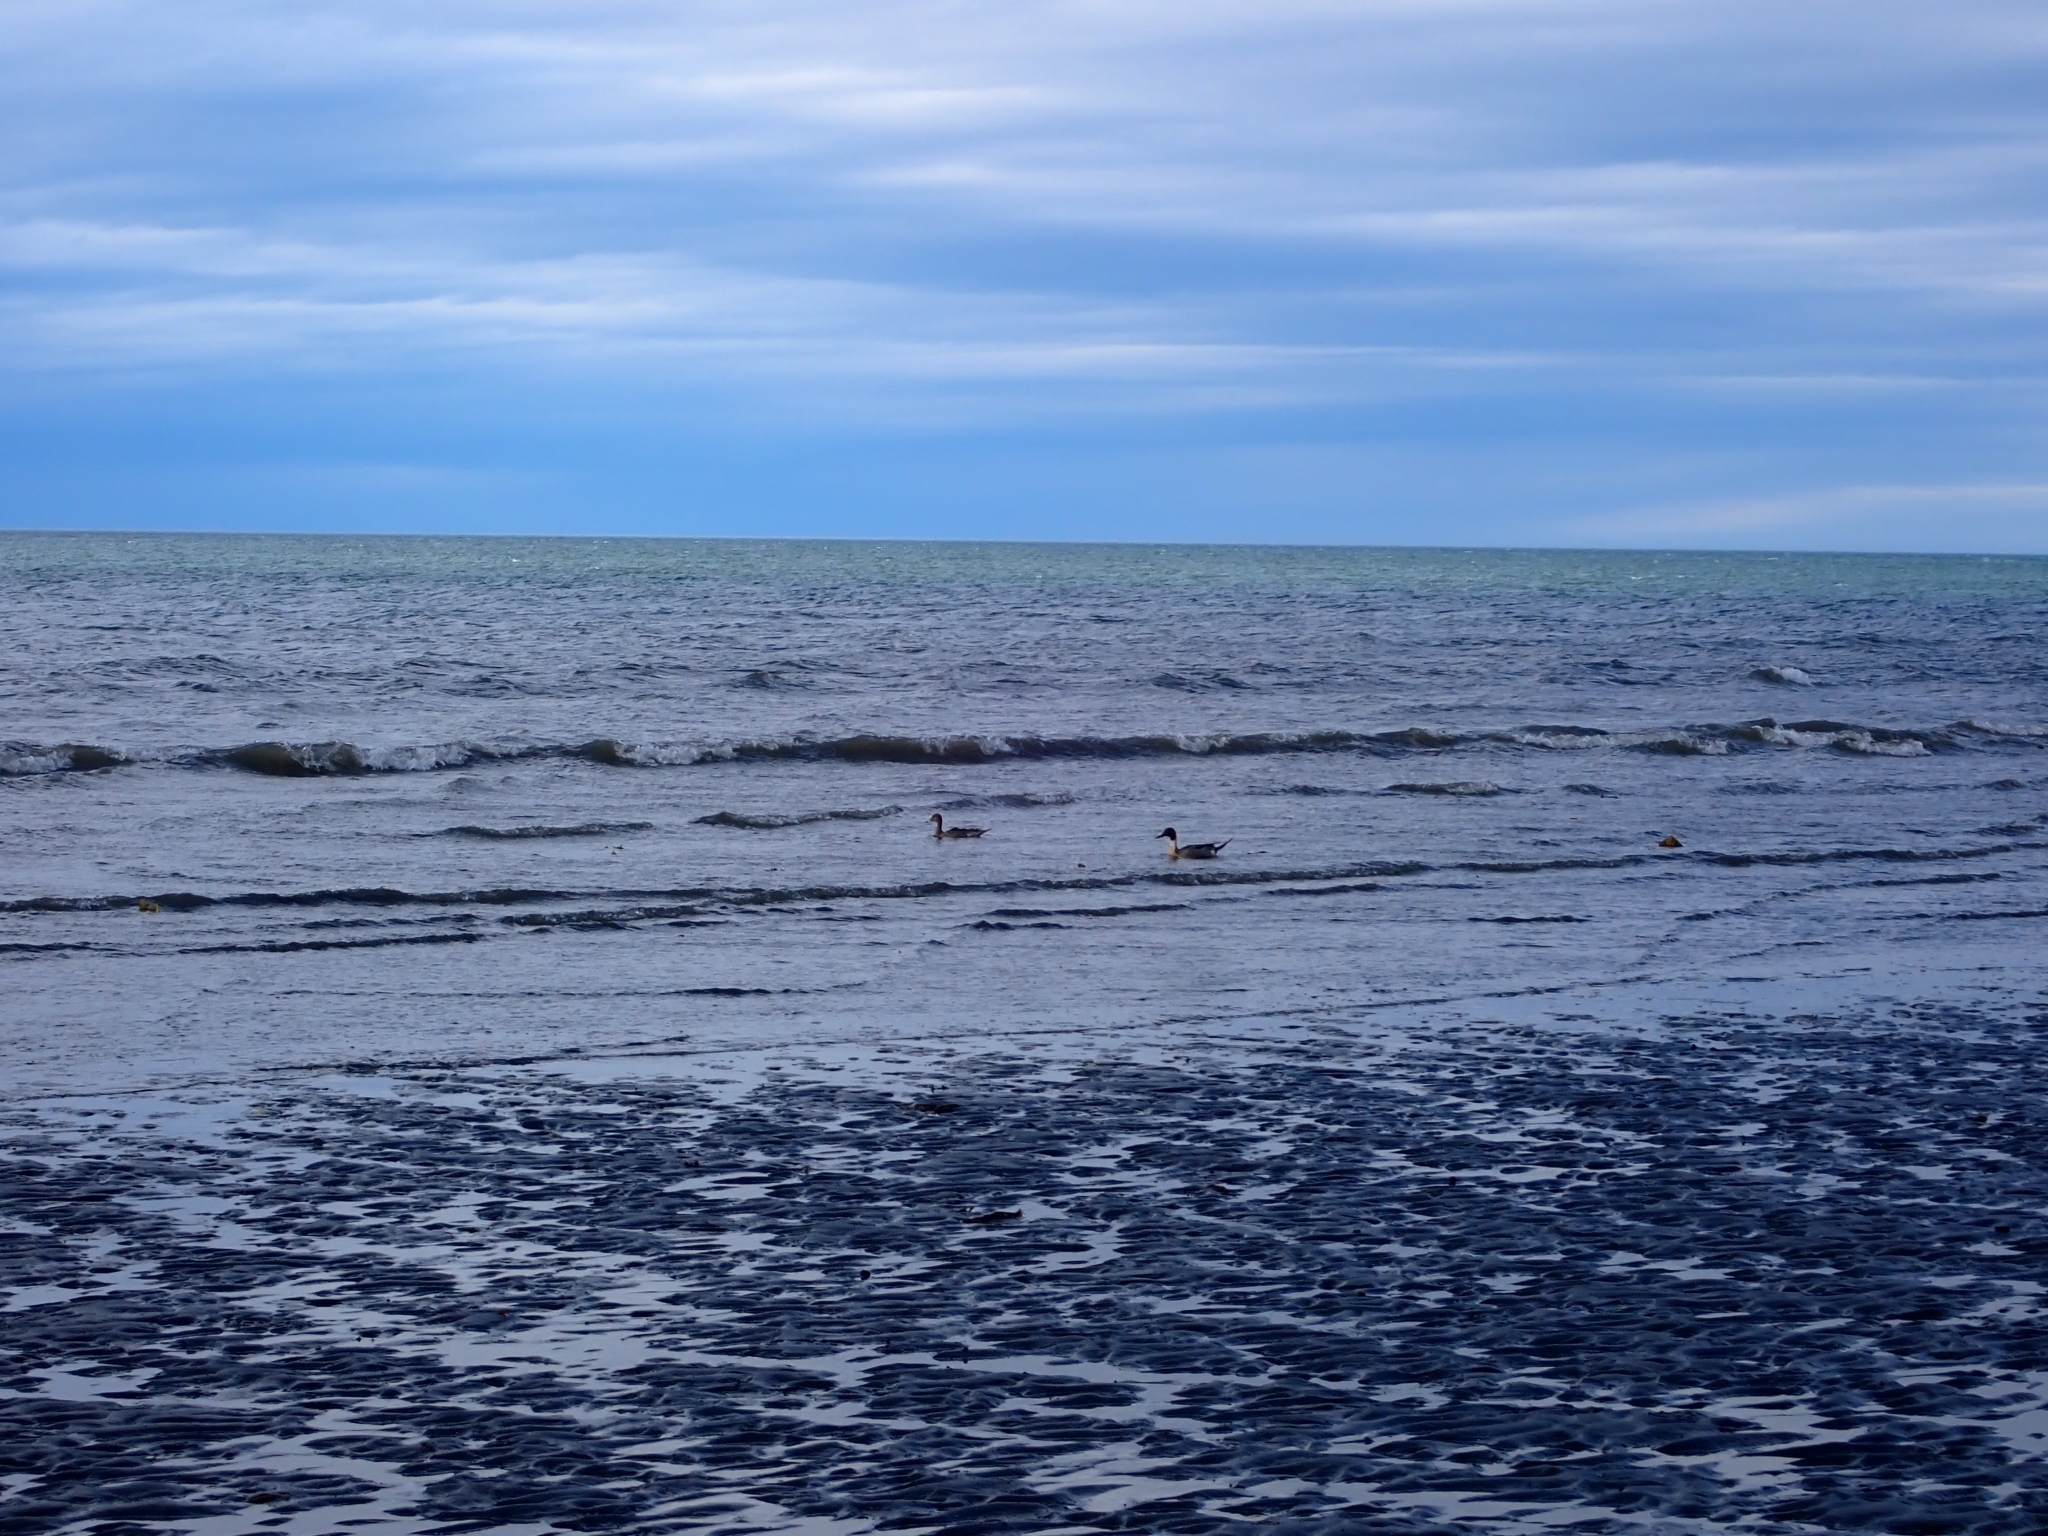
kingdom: Animalia
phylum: Chordata
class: Aves
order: Anseriformes
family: Anatidae
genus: Anas
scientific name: Anas acuta
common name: Northern pintail
